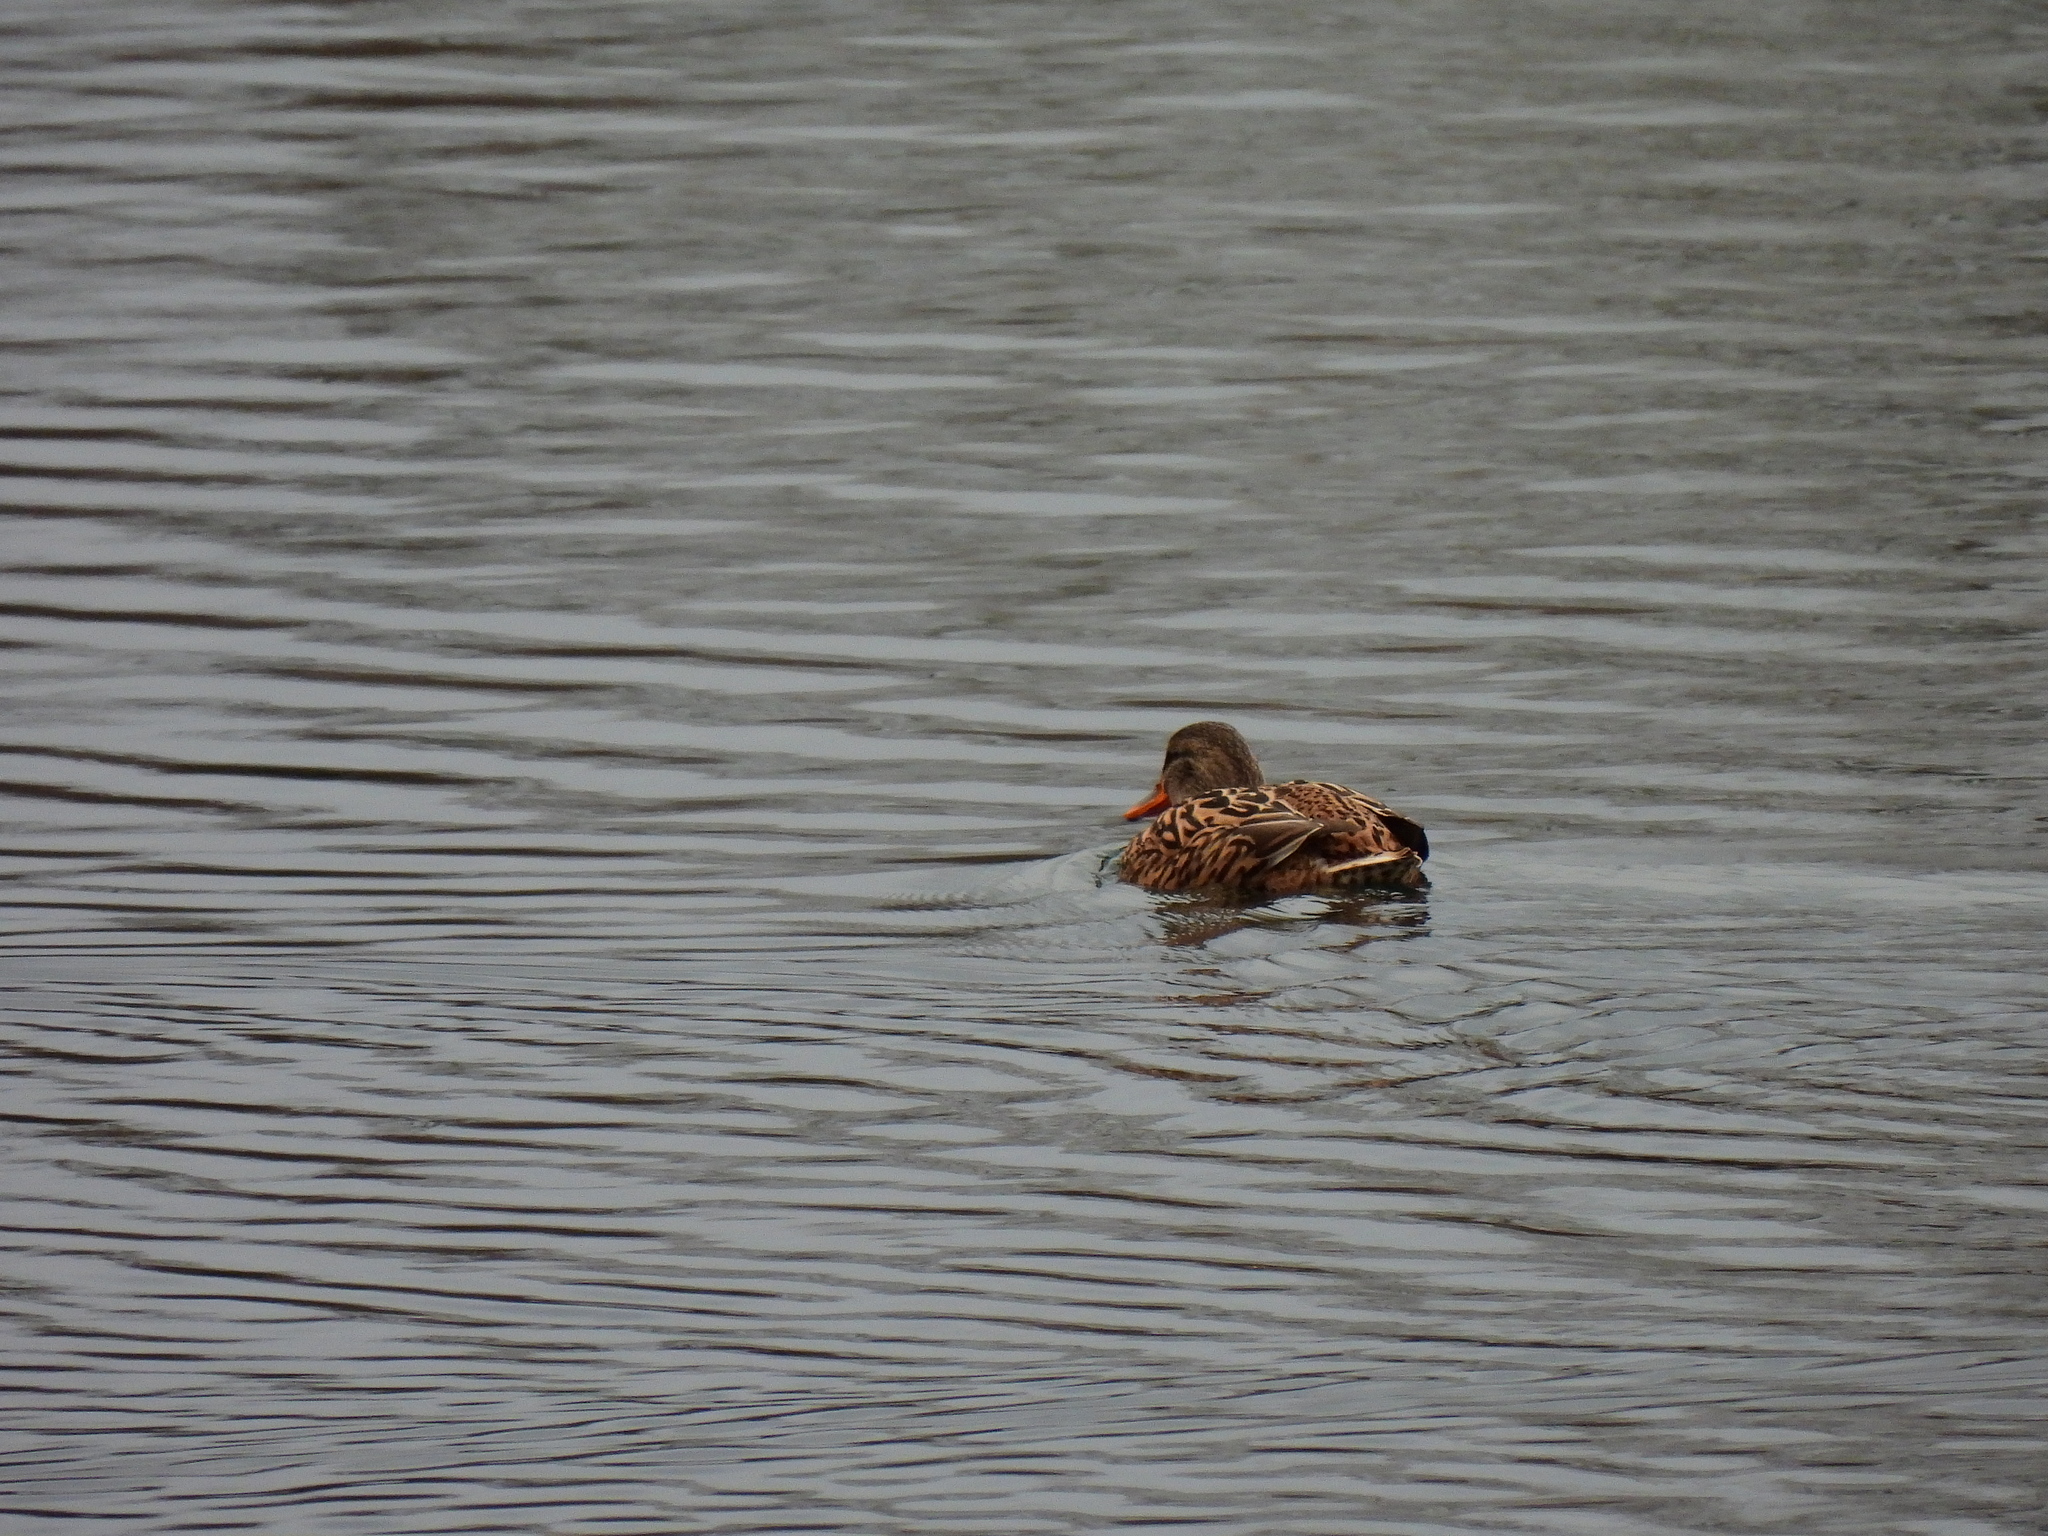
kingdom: Animalia
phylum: Chordata
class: Aves
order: Anseriformes
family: Anatidae
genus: Anas
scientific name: Anas platyrhynchos
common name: Mallard
